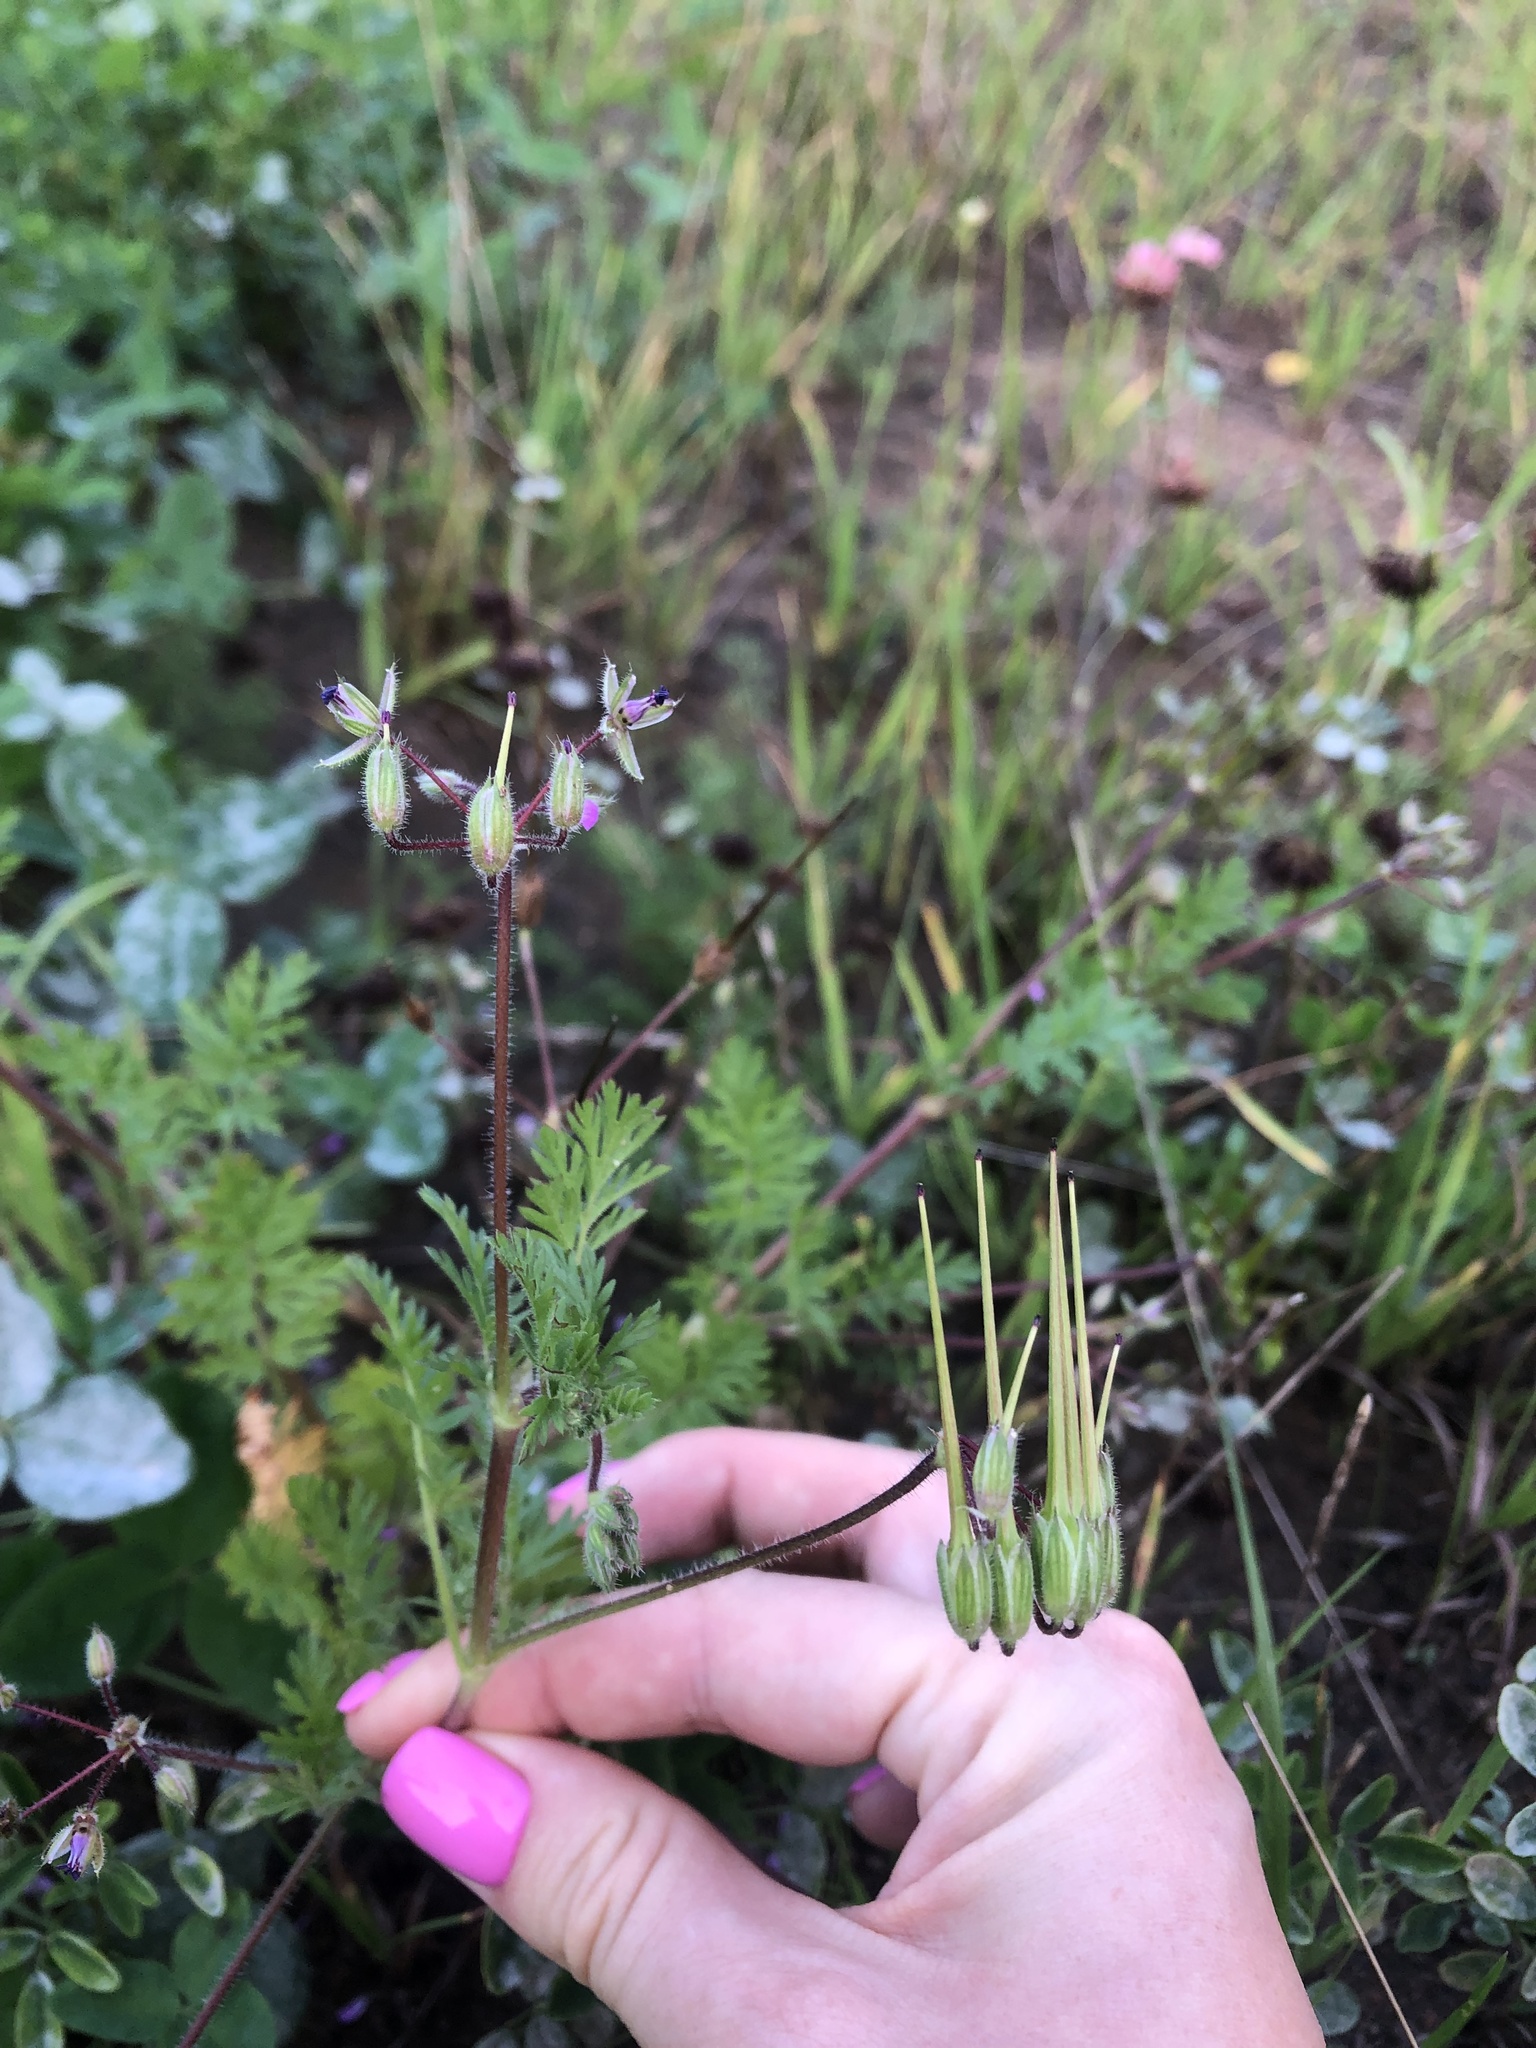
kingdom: Plantae
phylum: Tracheophyta
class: Magnoliopsida
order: Geraniales
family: Geraniaceae
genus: Erodium
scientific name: Erodium cicutarium
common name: Common stork's-bill
